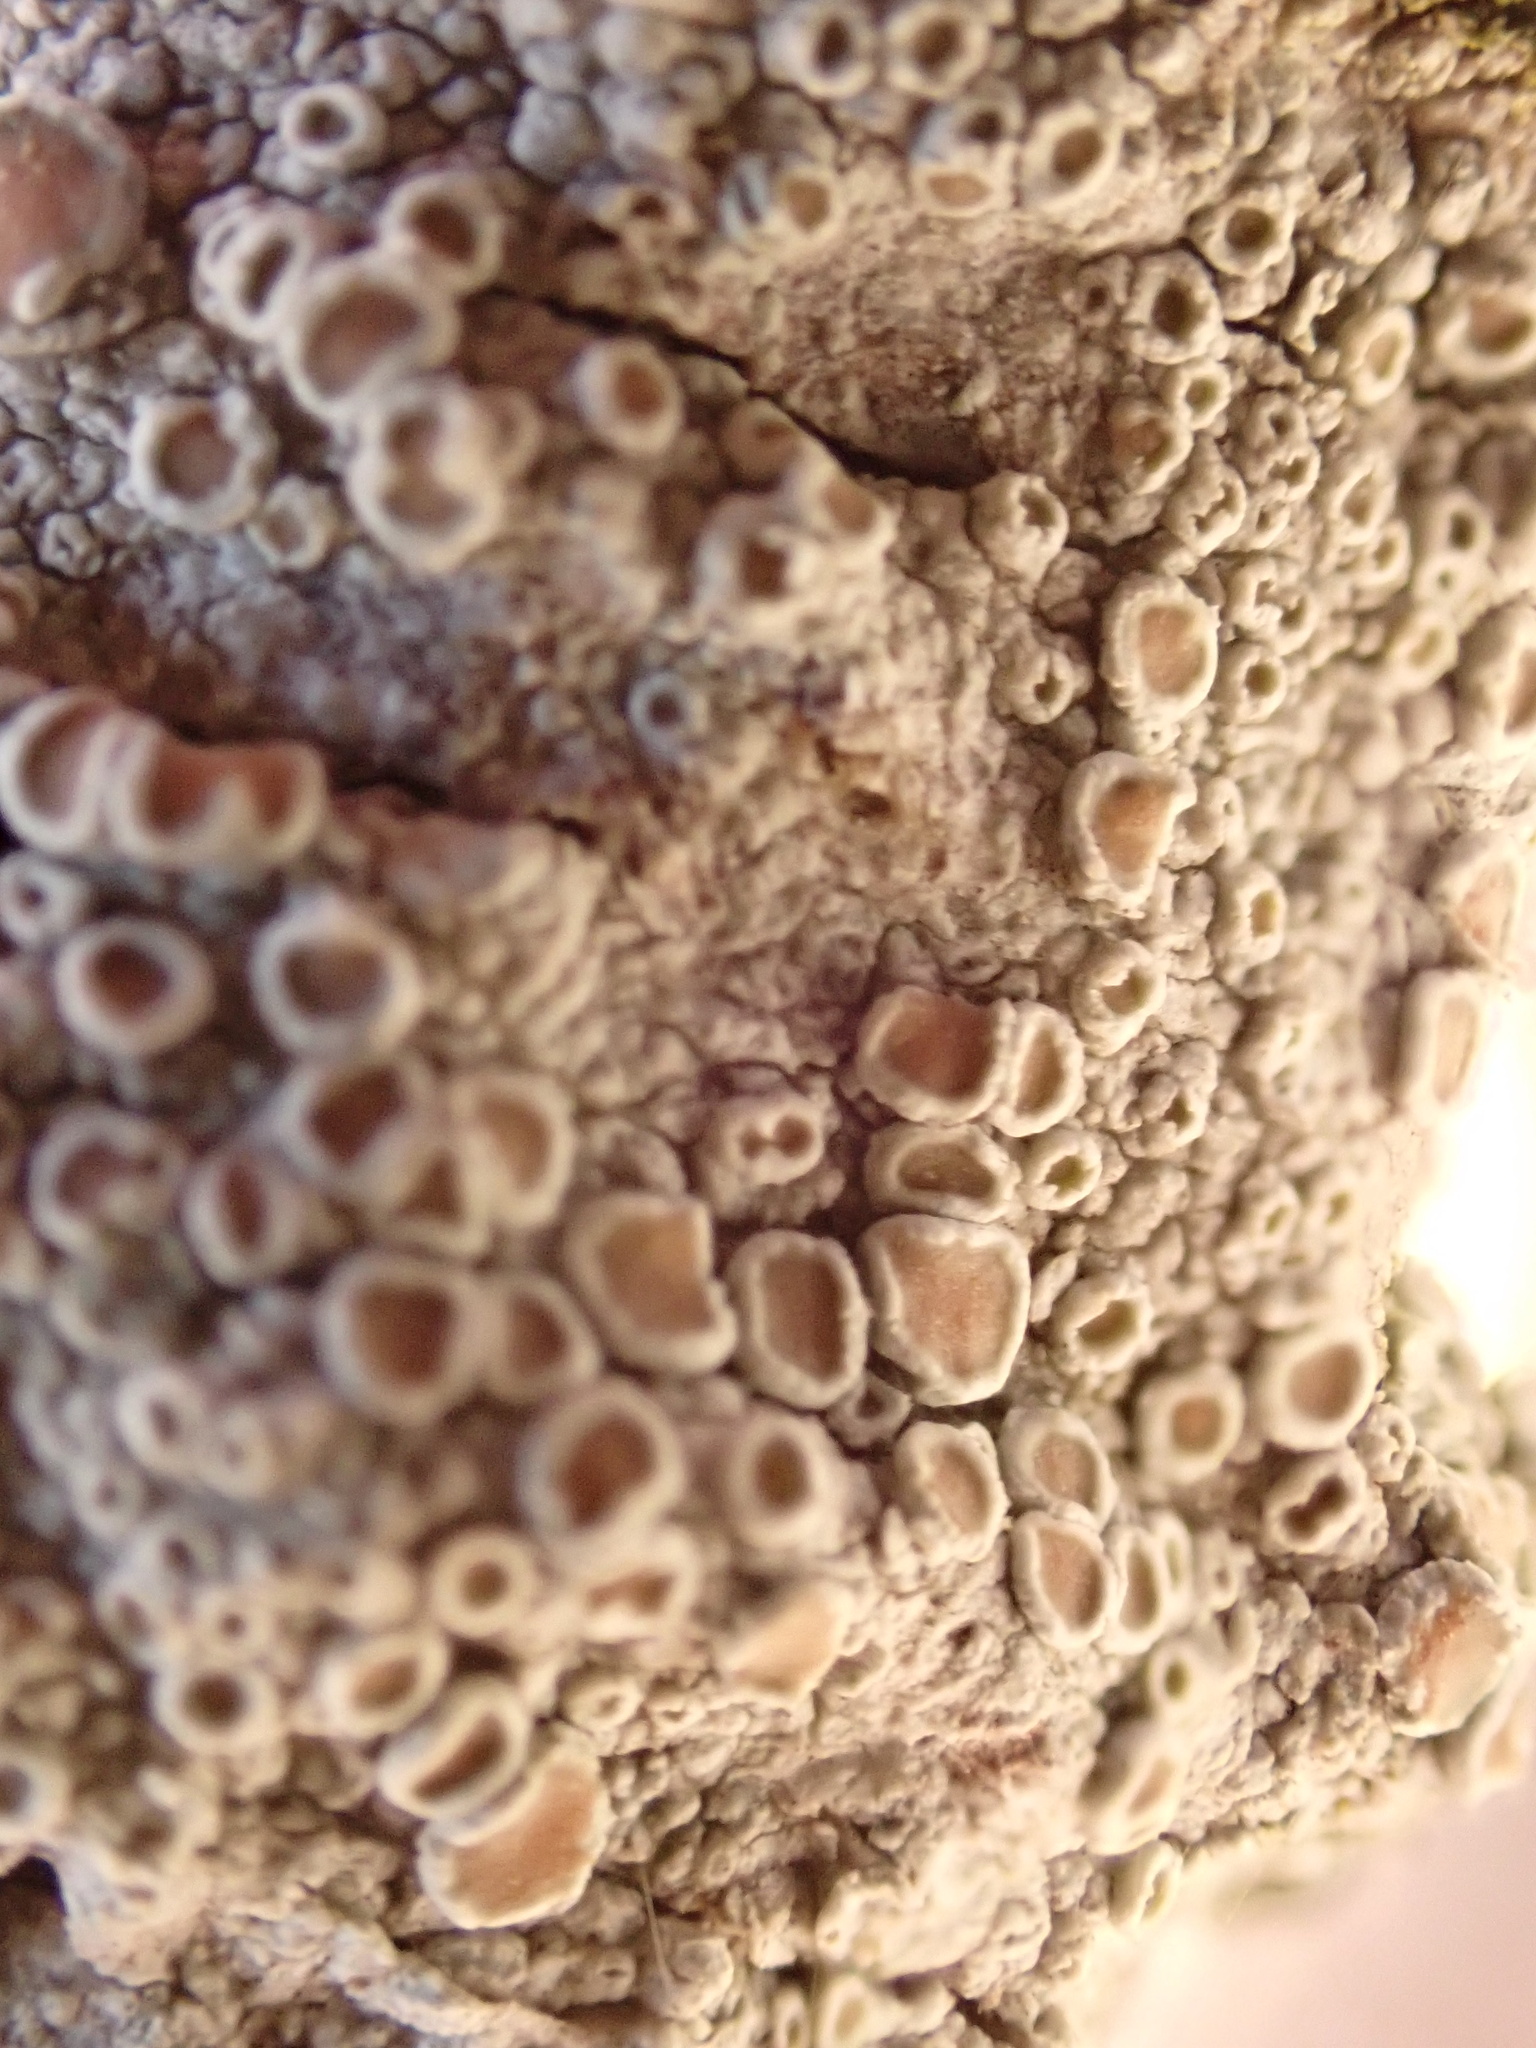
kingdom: Fungi
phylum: Ascomycota
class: Lecanoromycetes
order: Lecanorales
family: Lecanoraceae
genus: Lecanora
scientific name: Lecanora chlarotera
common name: Brown rim-lichen
